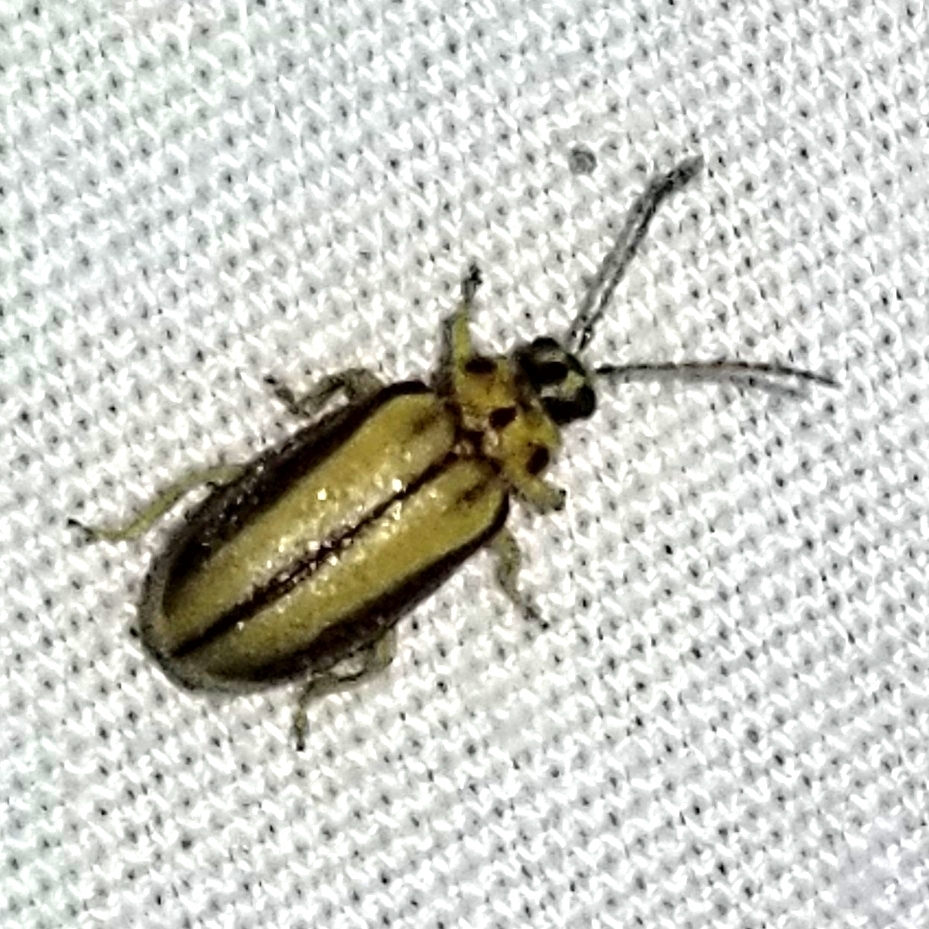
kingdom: Animalia
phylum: Arthropoda
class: Insecta
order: Coleoptera
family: Chrysomelidae
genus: Xanthogaleruca
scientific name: Xanthogaleruca luteola
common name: Elm leaf beetle
